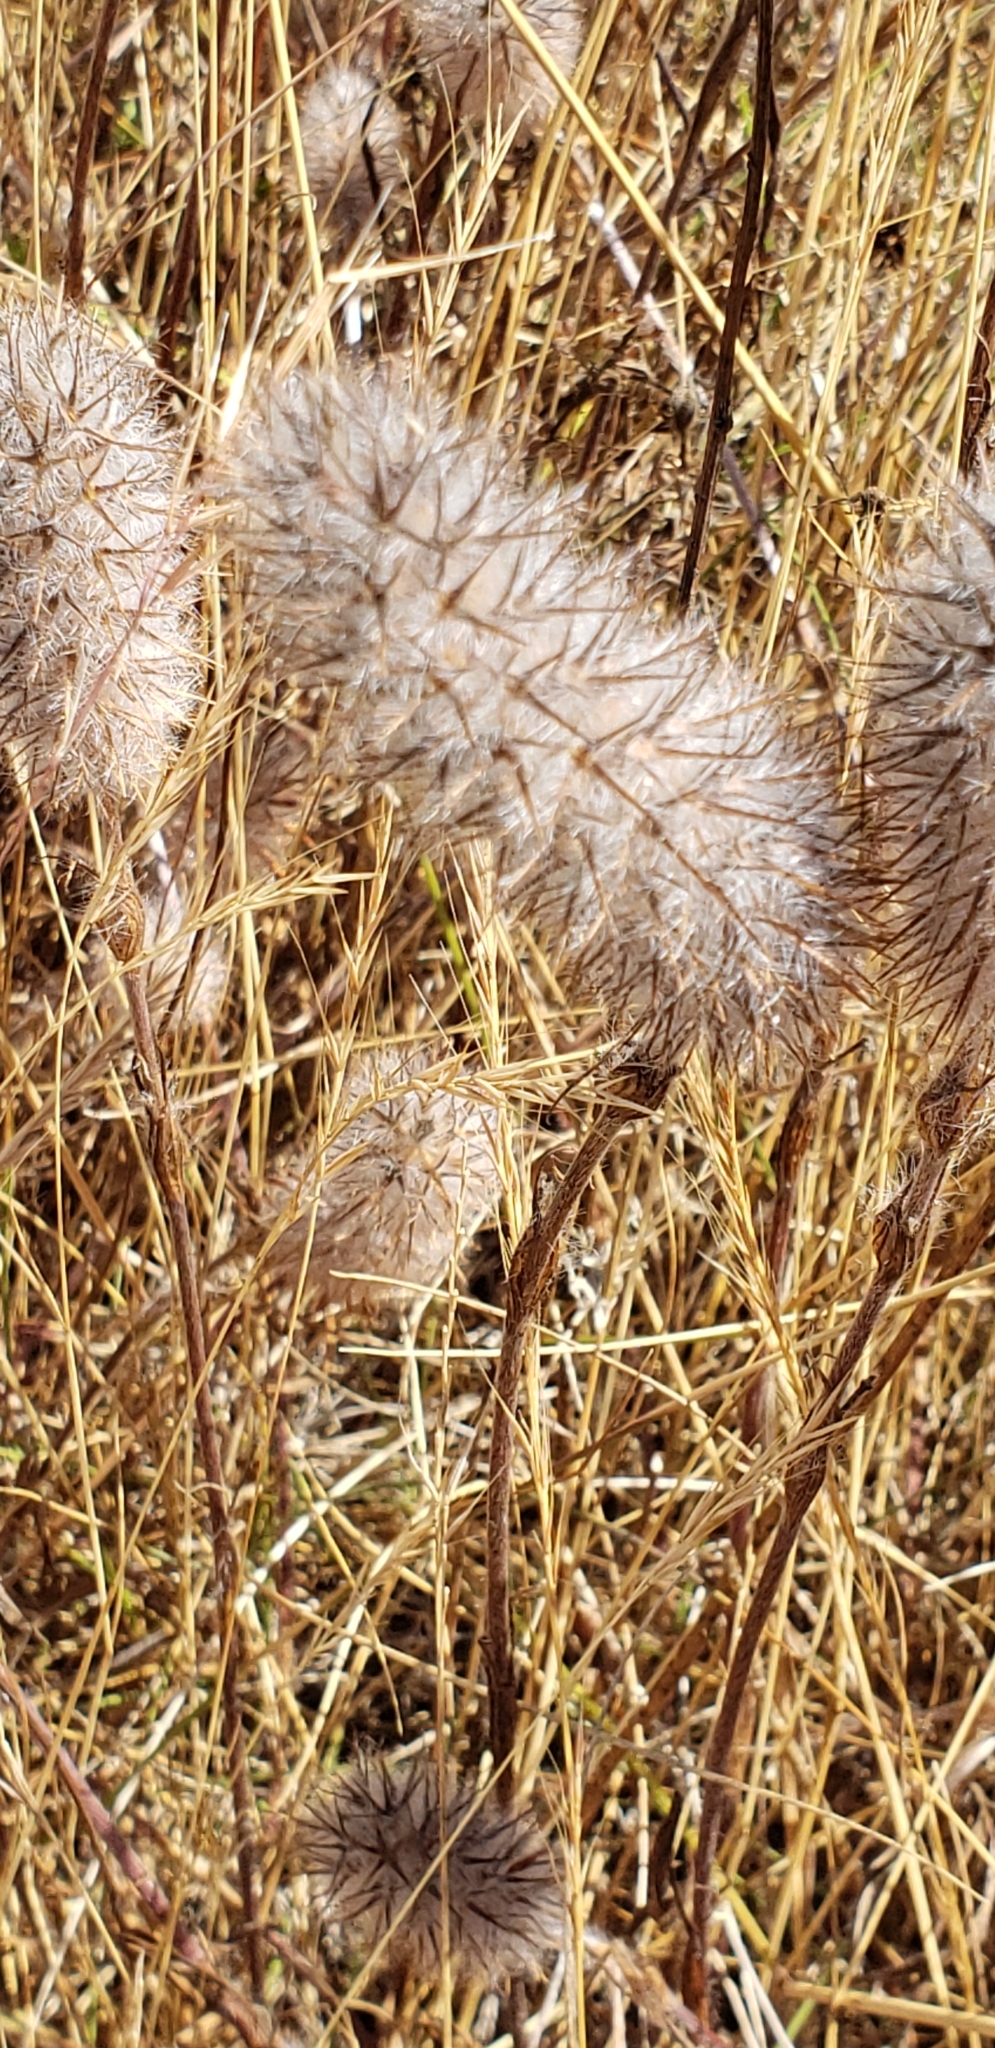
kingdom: Plantae
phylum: Tracheophyta
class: Magnoliopsida
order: Fabales
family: Fabaceae
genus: Trifolium
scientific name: Trifolium angustifolium
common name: Narrow clover
